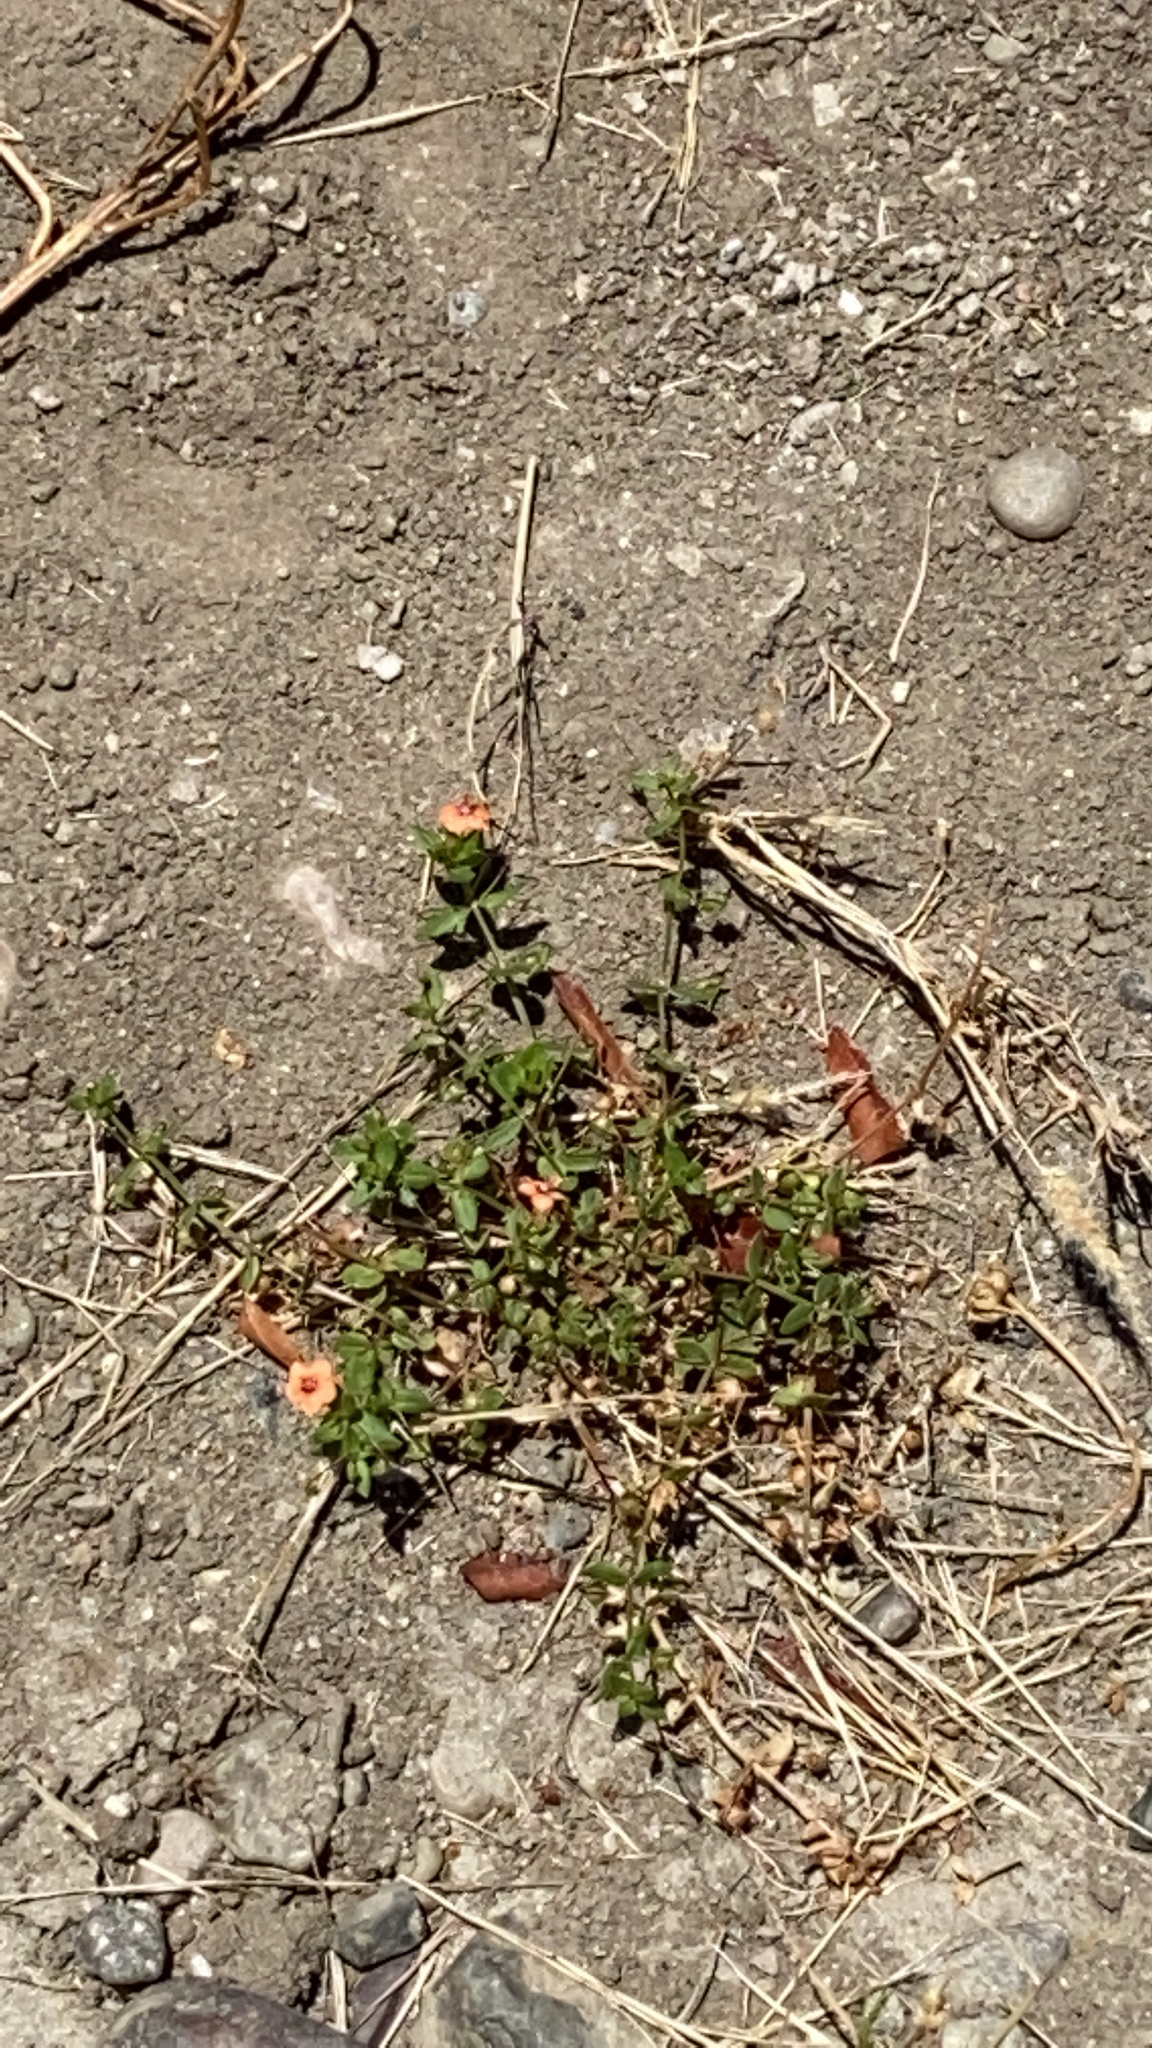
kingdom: Plantae
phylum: Tracheophyta
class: Magnoliopsida
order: Ericales
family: Primulaceae
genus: Lysimachia
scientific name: Lysimachia arvensis
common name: Scarlet pimpernel
